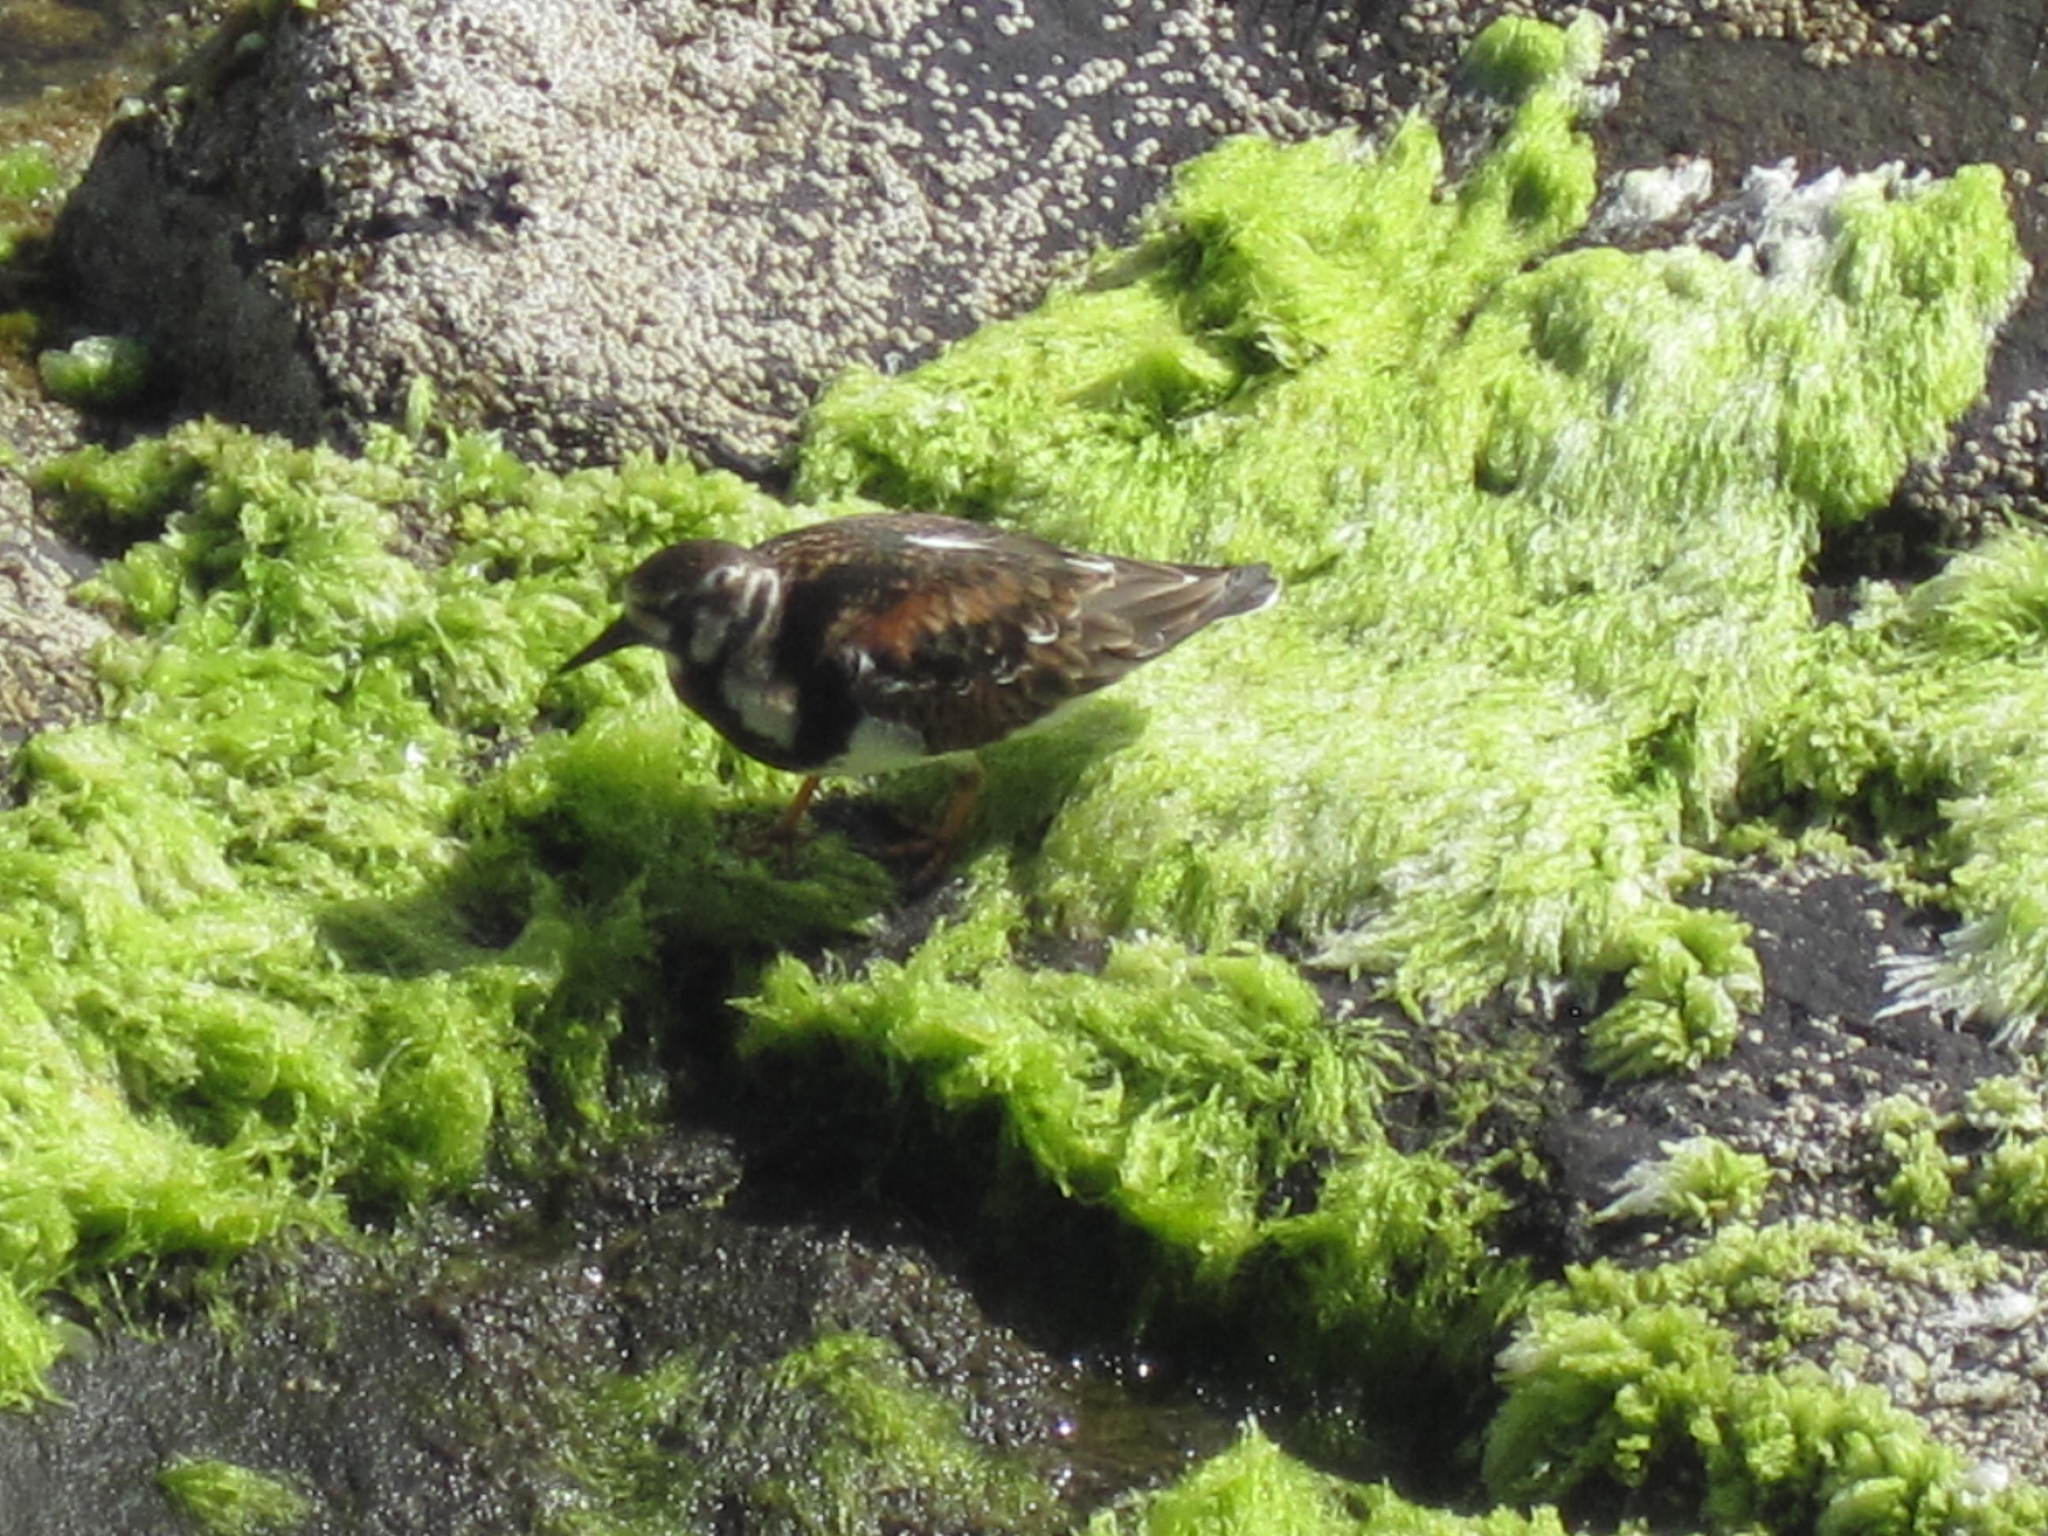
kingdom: Animalia
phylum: Chordata
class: Aves
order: Charadriiformes
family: Scolopacidae
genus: Arenaria
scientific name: Arenaria interpres
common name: Ruddy turnstone
